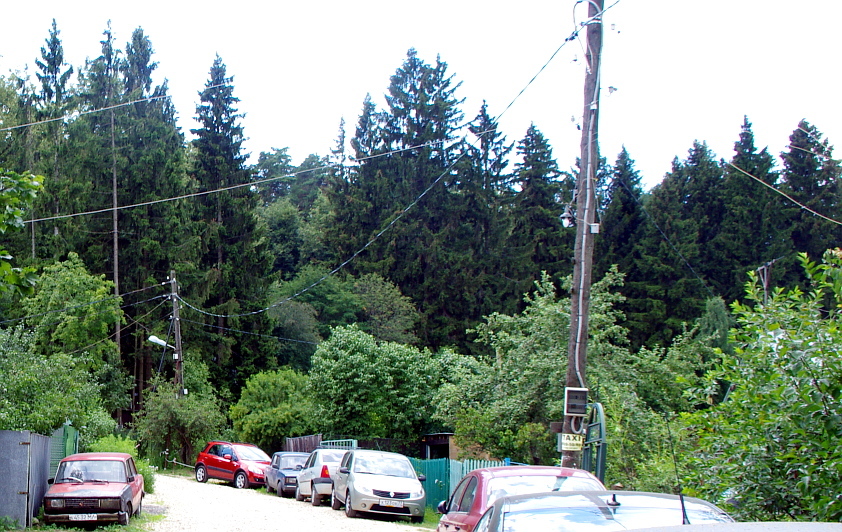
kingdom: Plantae
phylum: Tracheophyta
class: Pinopsida
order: Pinales
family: Pinaceae
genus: Picea
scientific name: Picea abies
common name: Norway spruce
